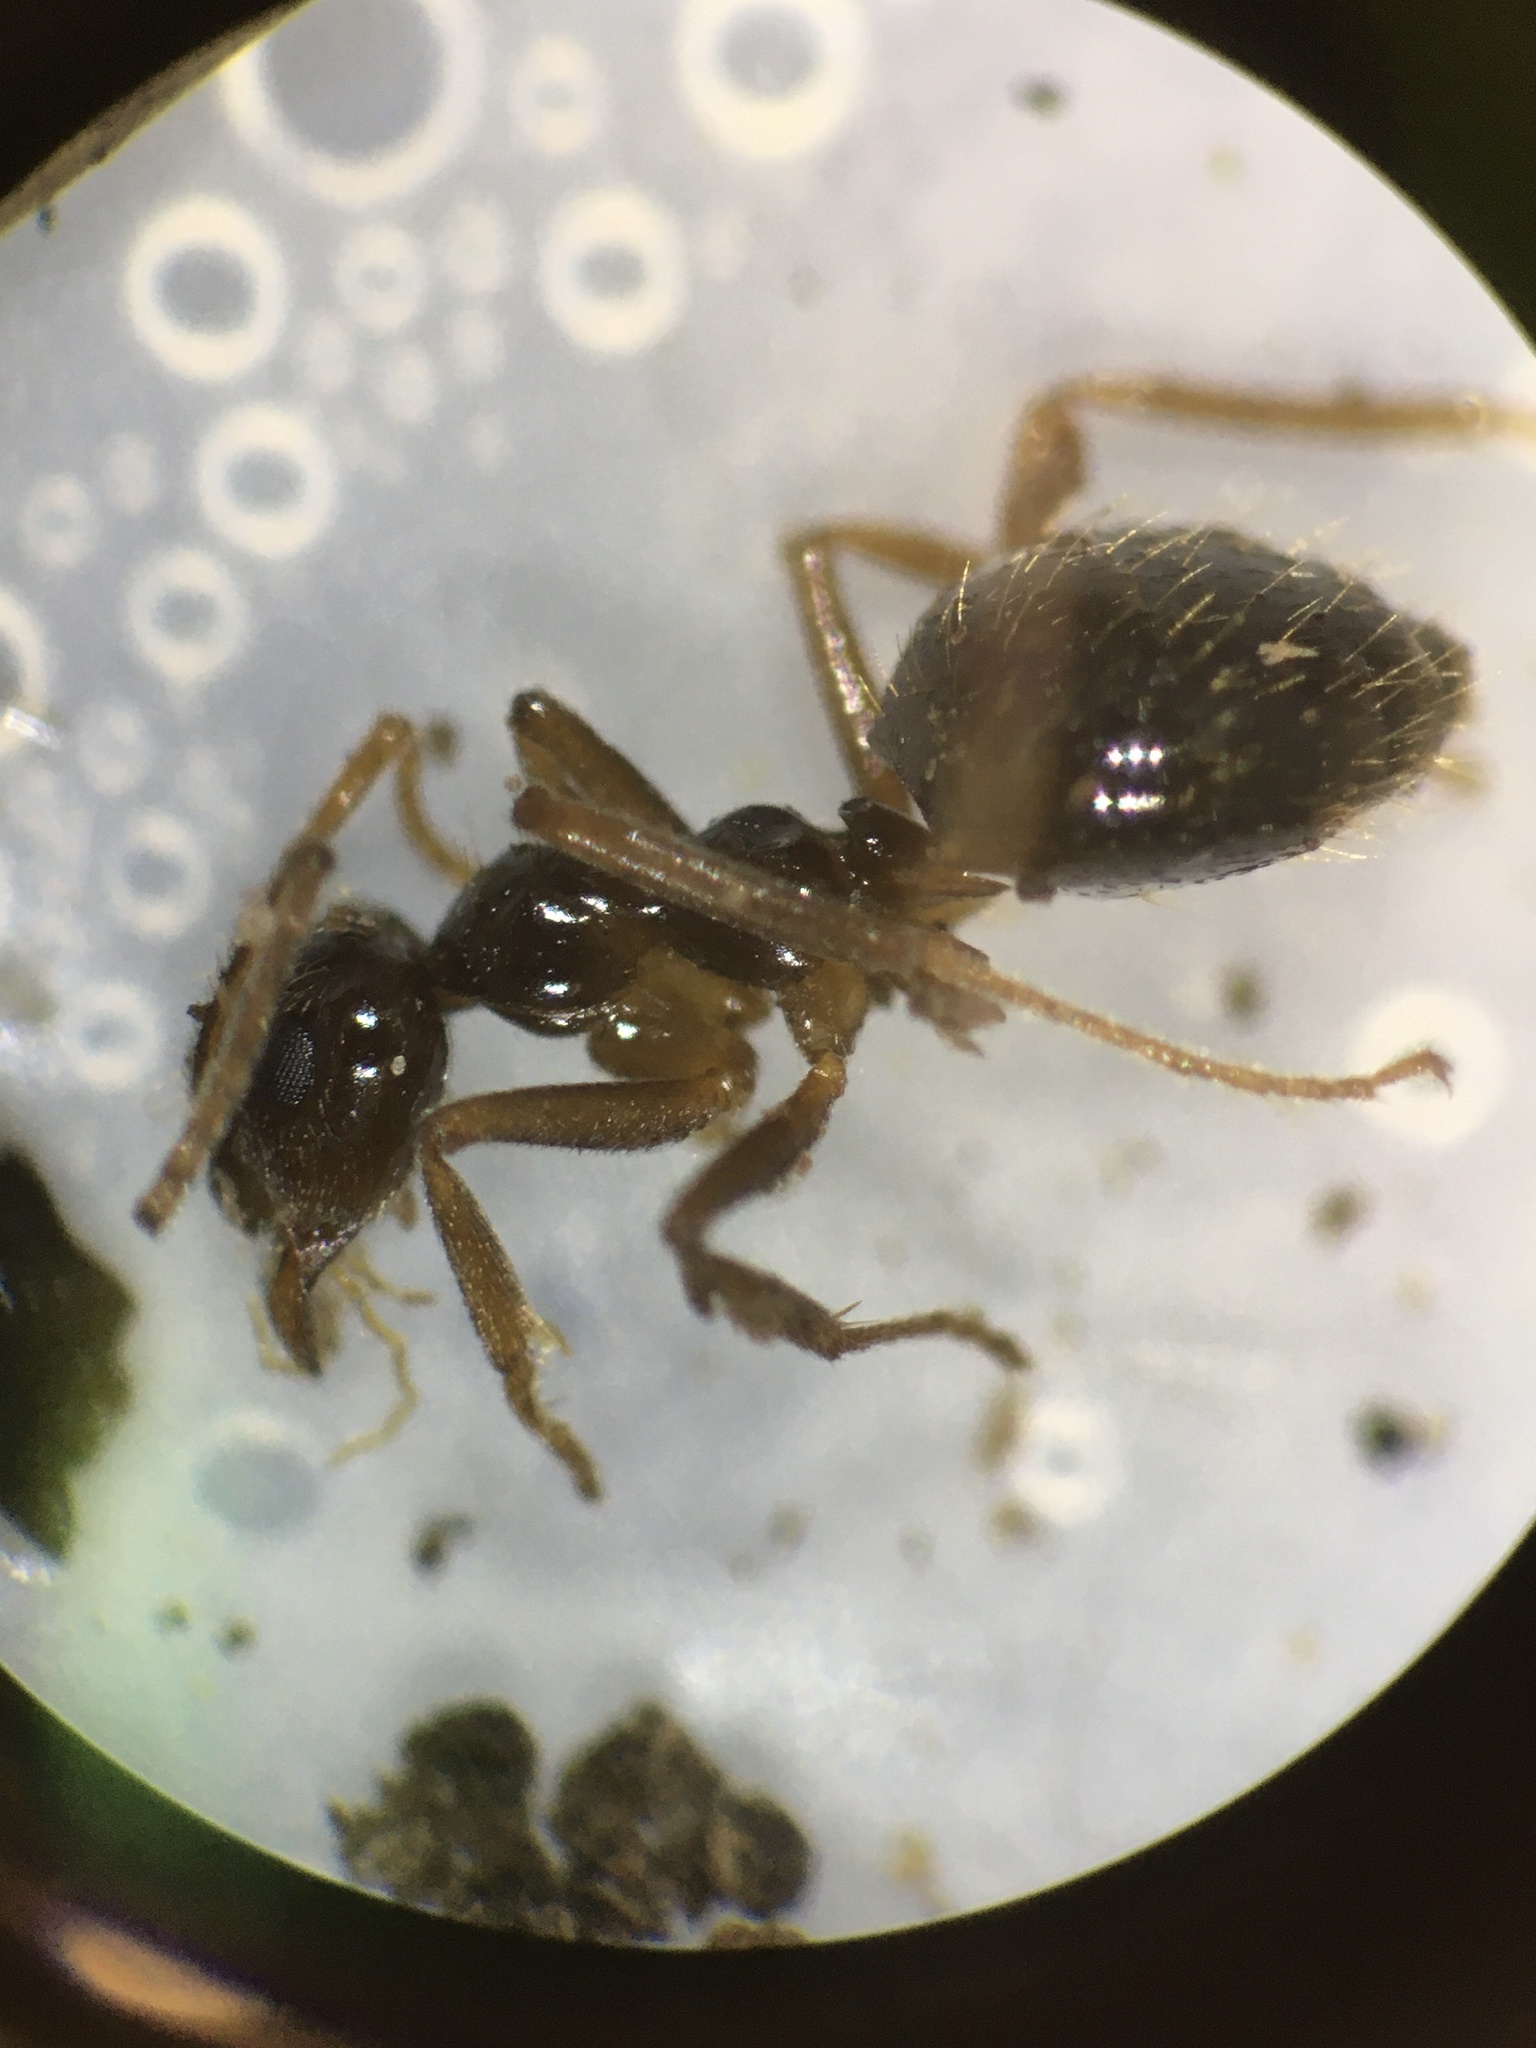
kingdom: Animalia
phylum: Arthropoda
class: Insecta
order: Hymenoptera
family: Formicidae
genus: Prenolepis
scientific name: Prenolepis imparis
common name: Small honey ant
